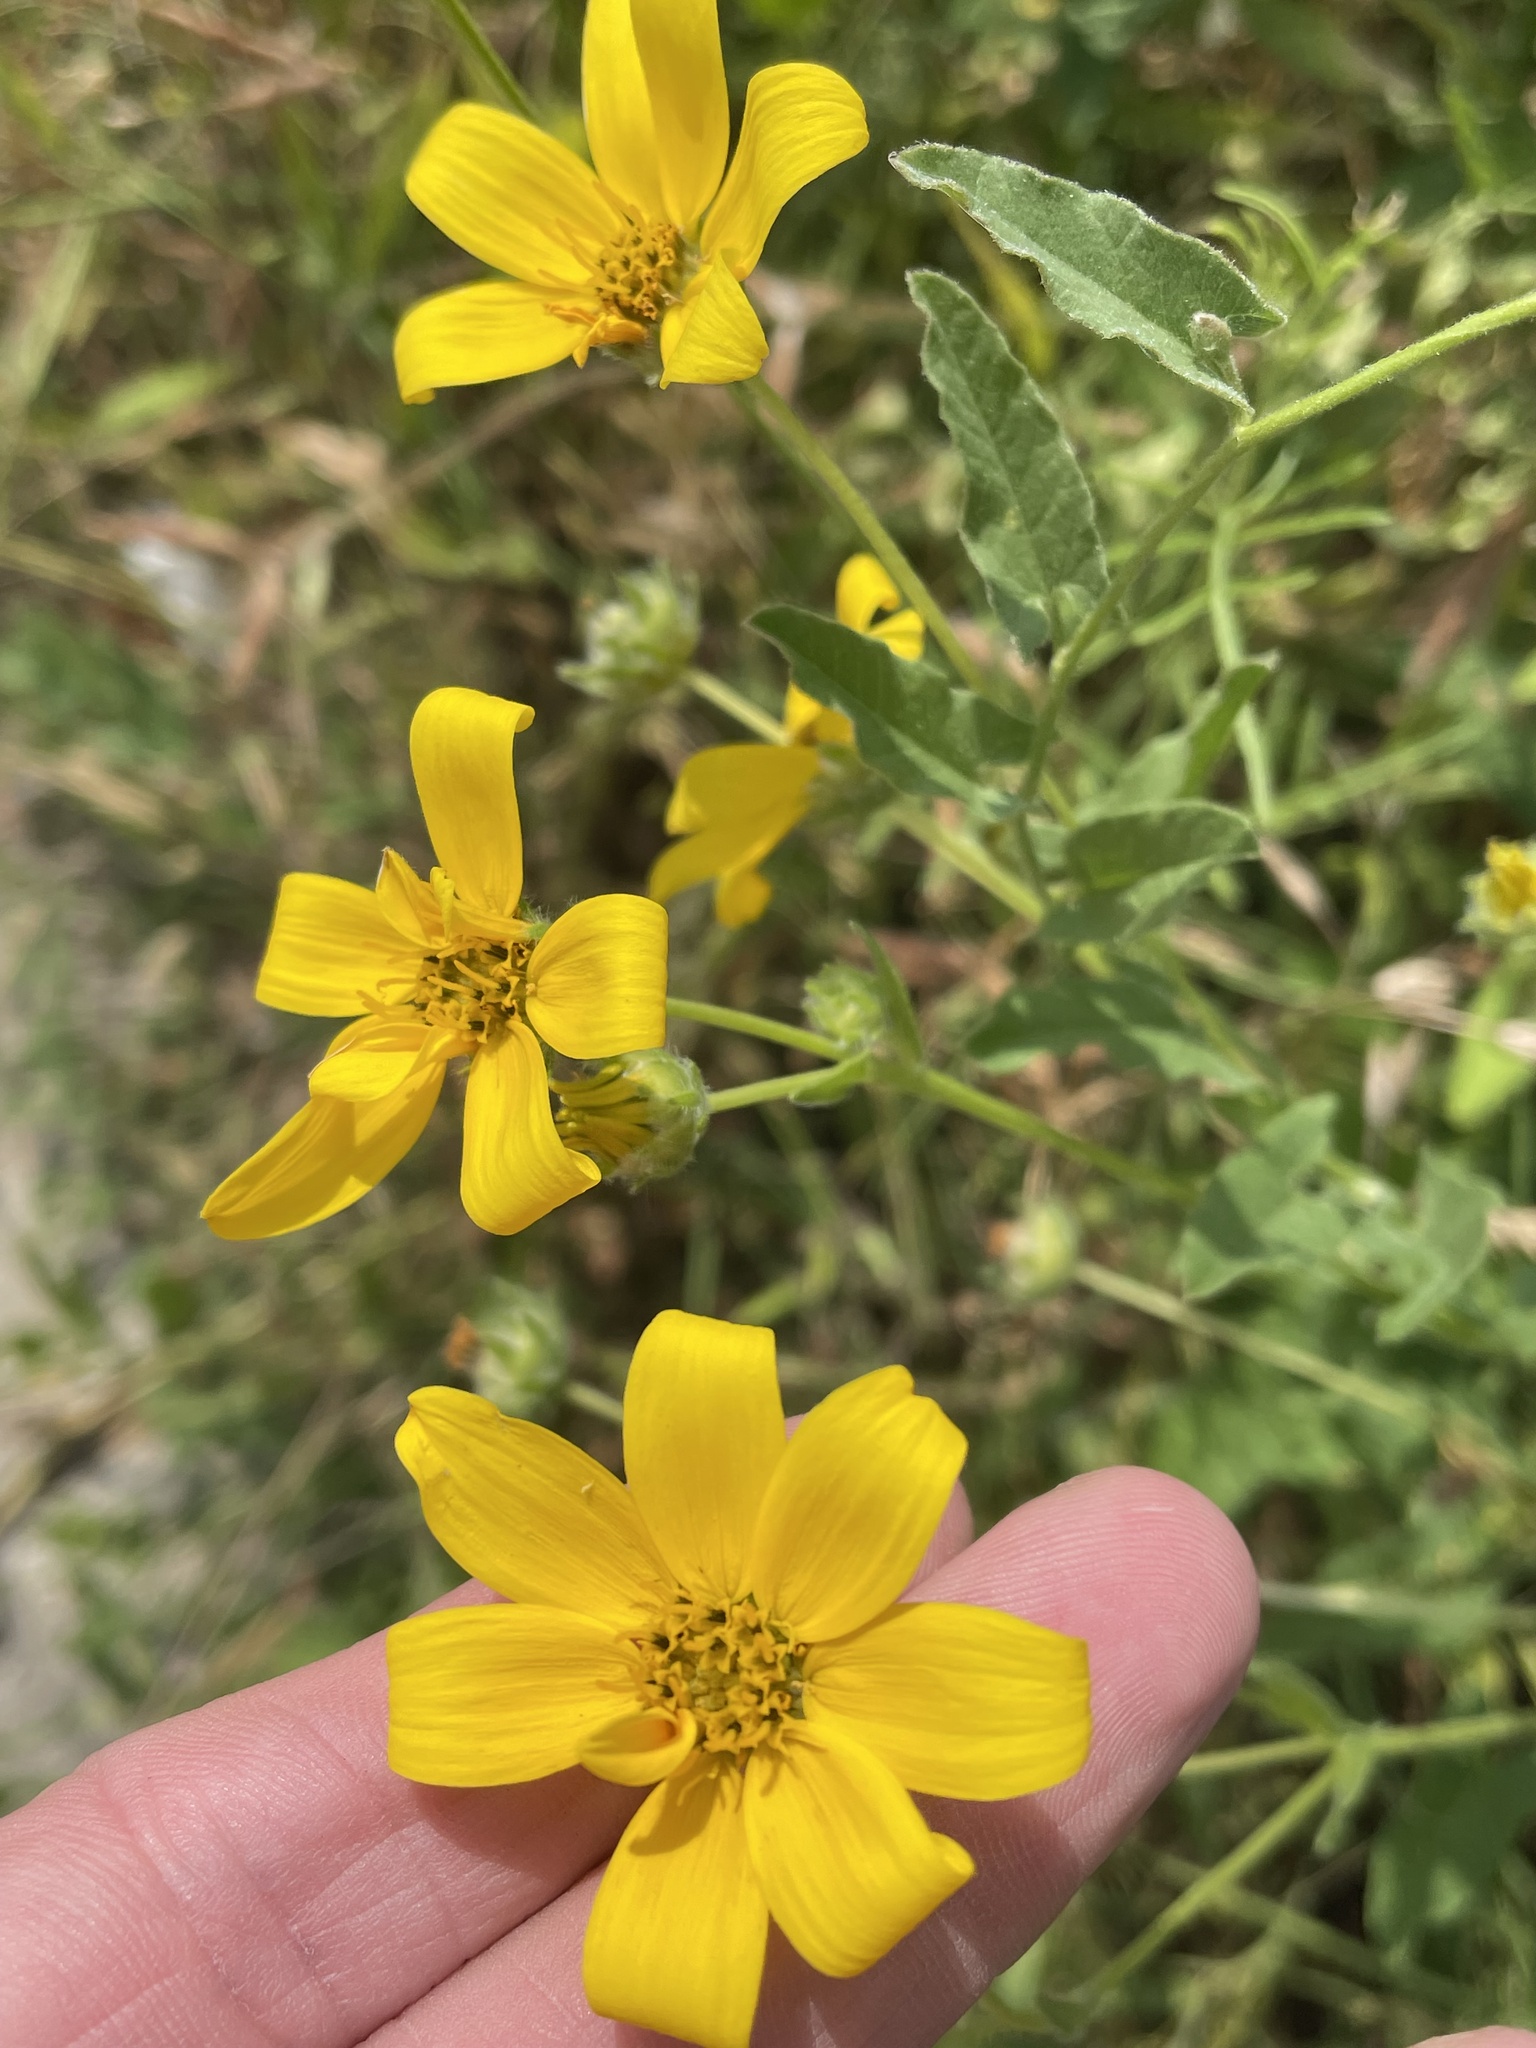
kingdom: Plantae
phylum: Tracheophyta
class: Magnoliopsida
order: Asterales
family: Asteraceae
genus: Engelmannia
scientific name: Engelmannia peristenia
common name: Engelmann's daisy
